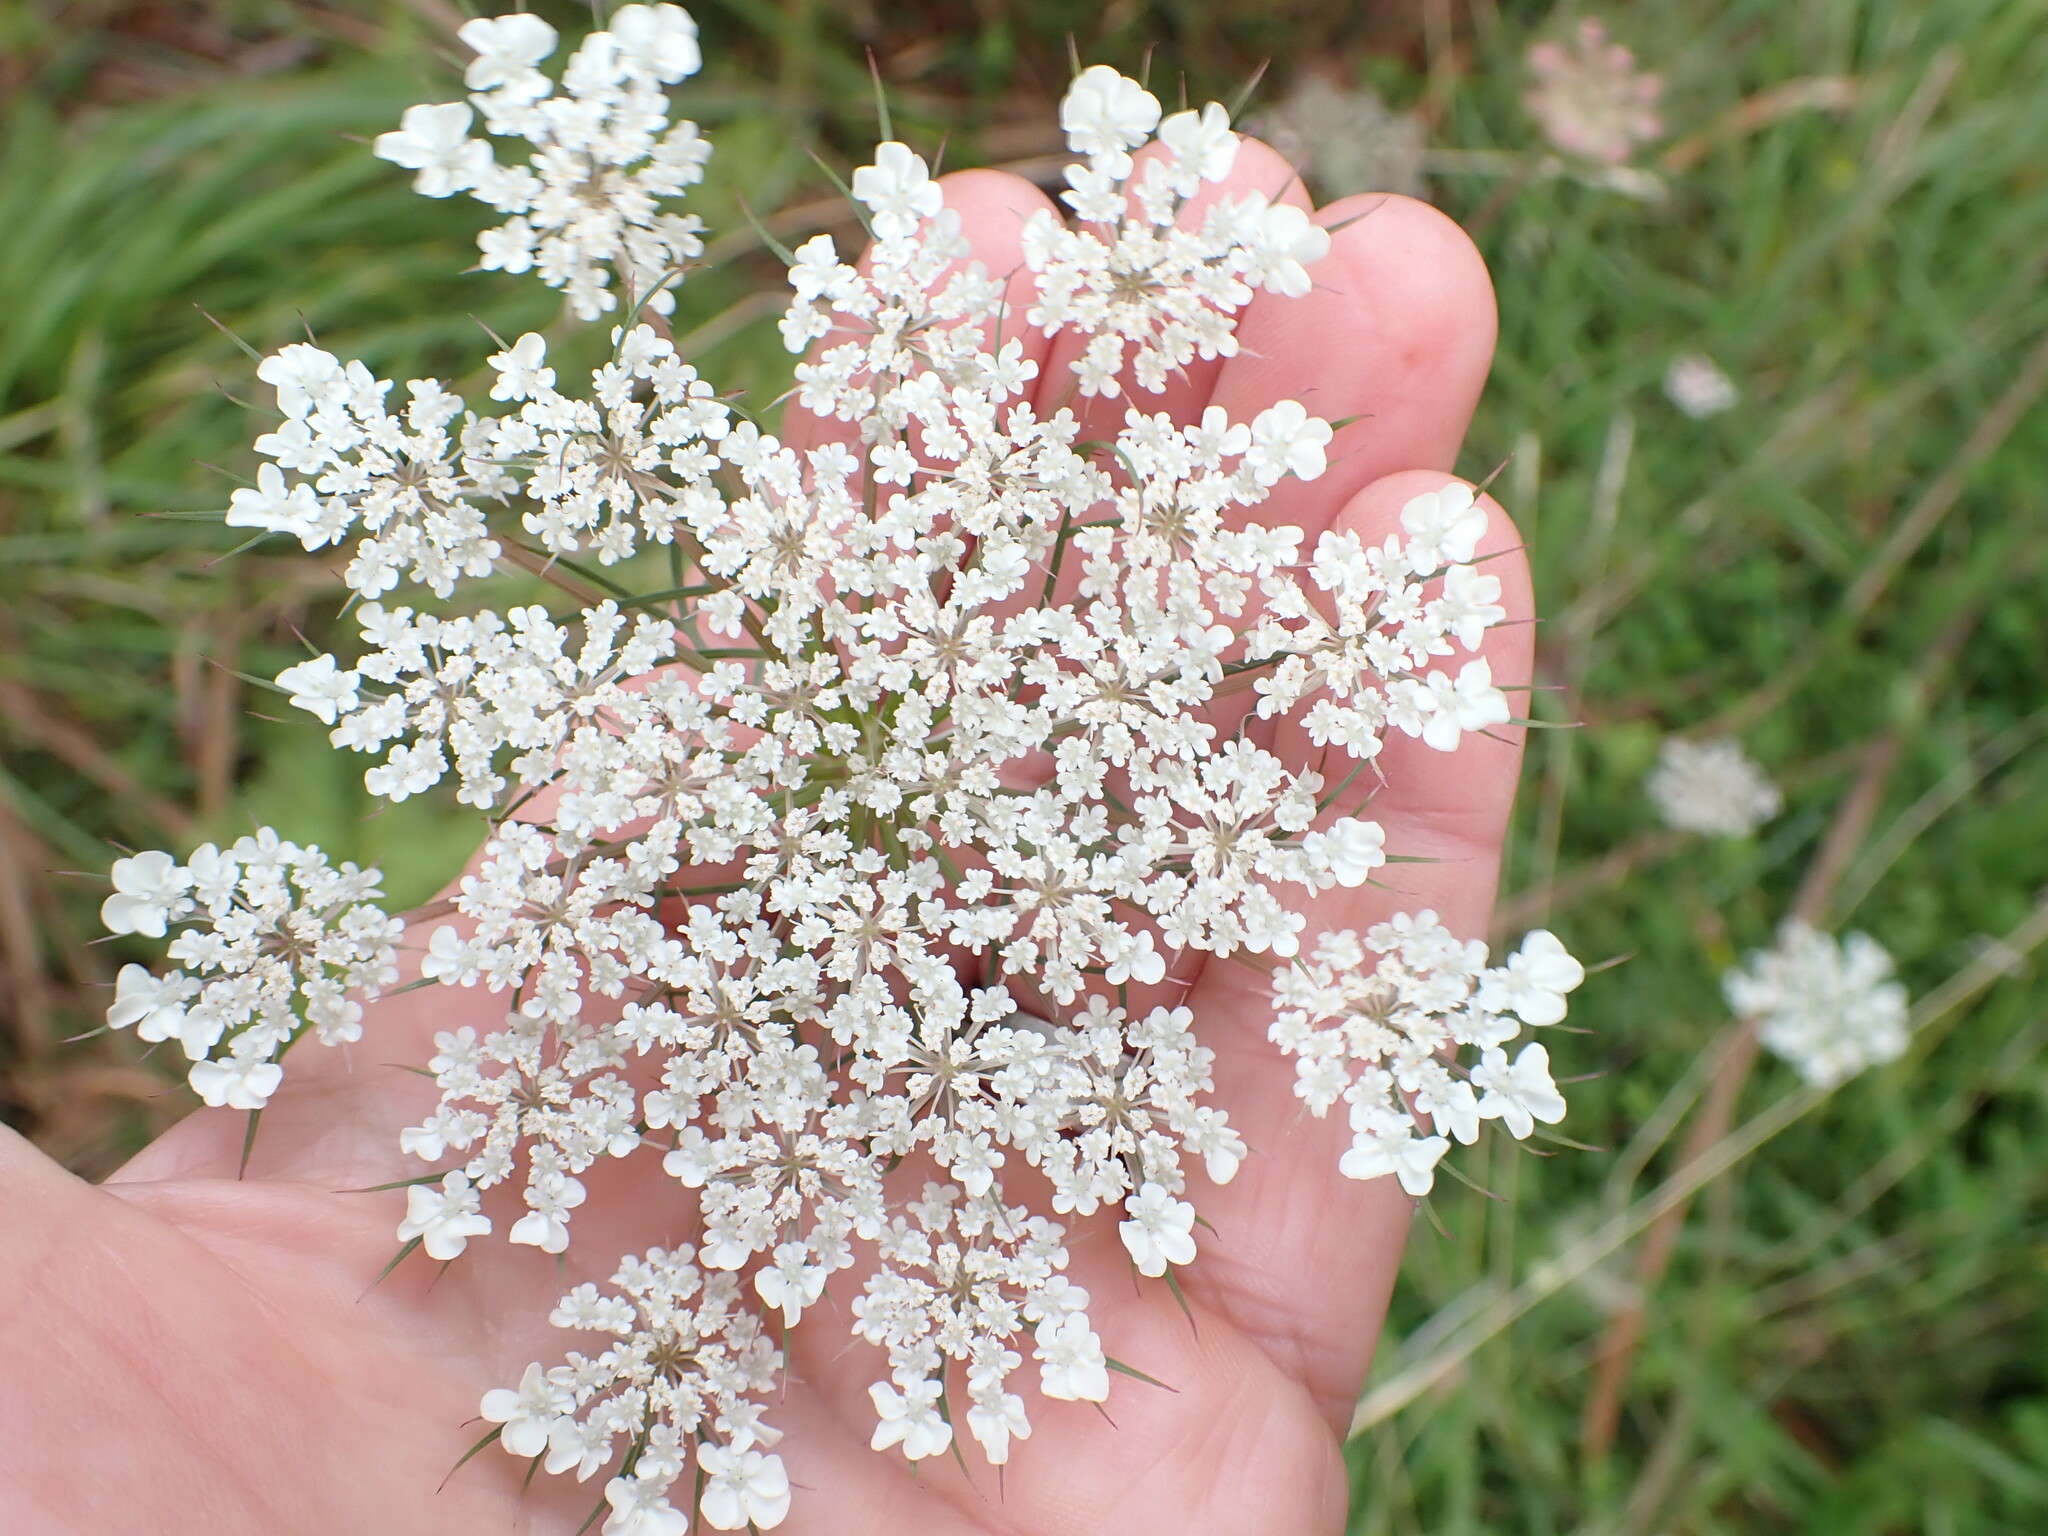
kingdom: Plantae
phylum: Tracheophyta
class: Magnoliopsida
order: Apiales
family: Apiaceae
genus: Daucus
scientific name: Daucus carota
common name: Wild carrot
